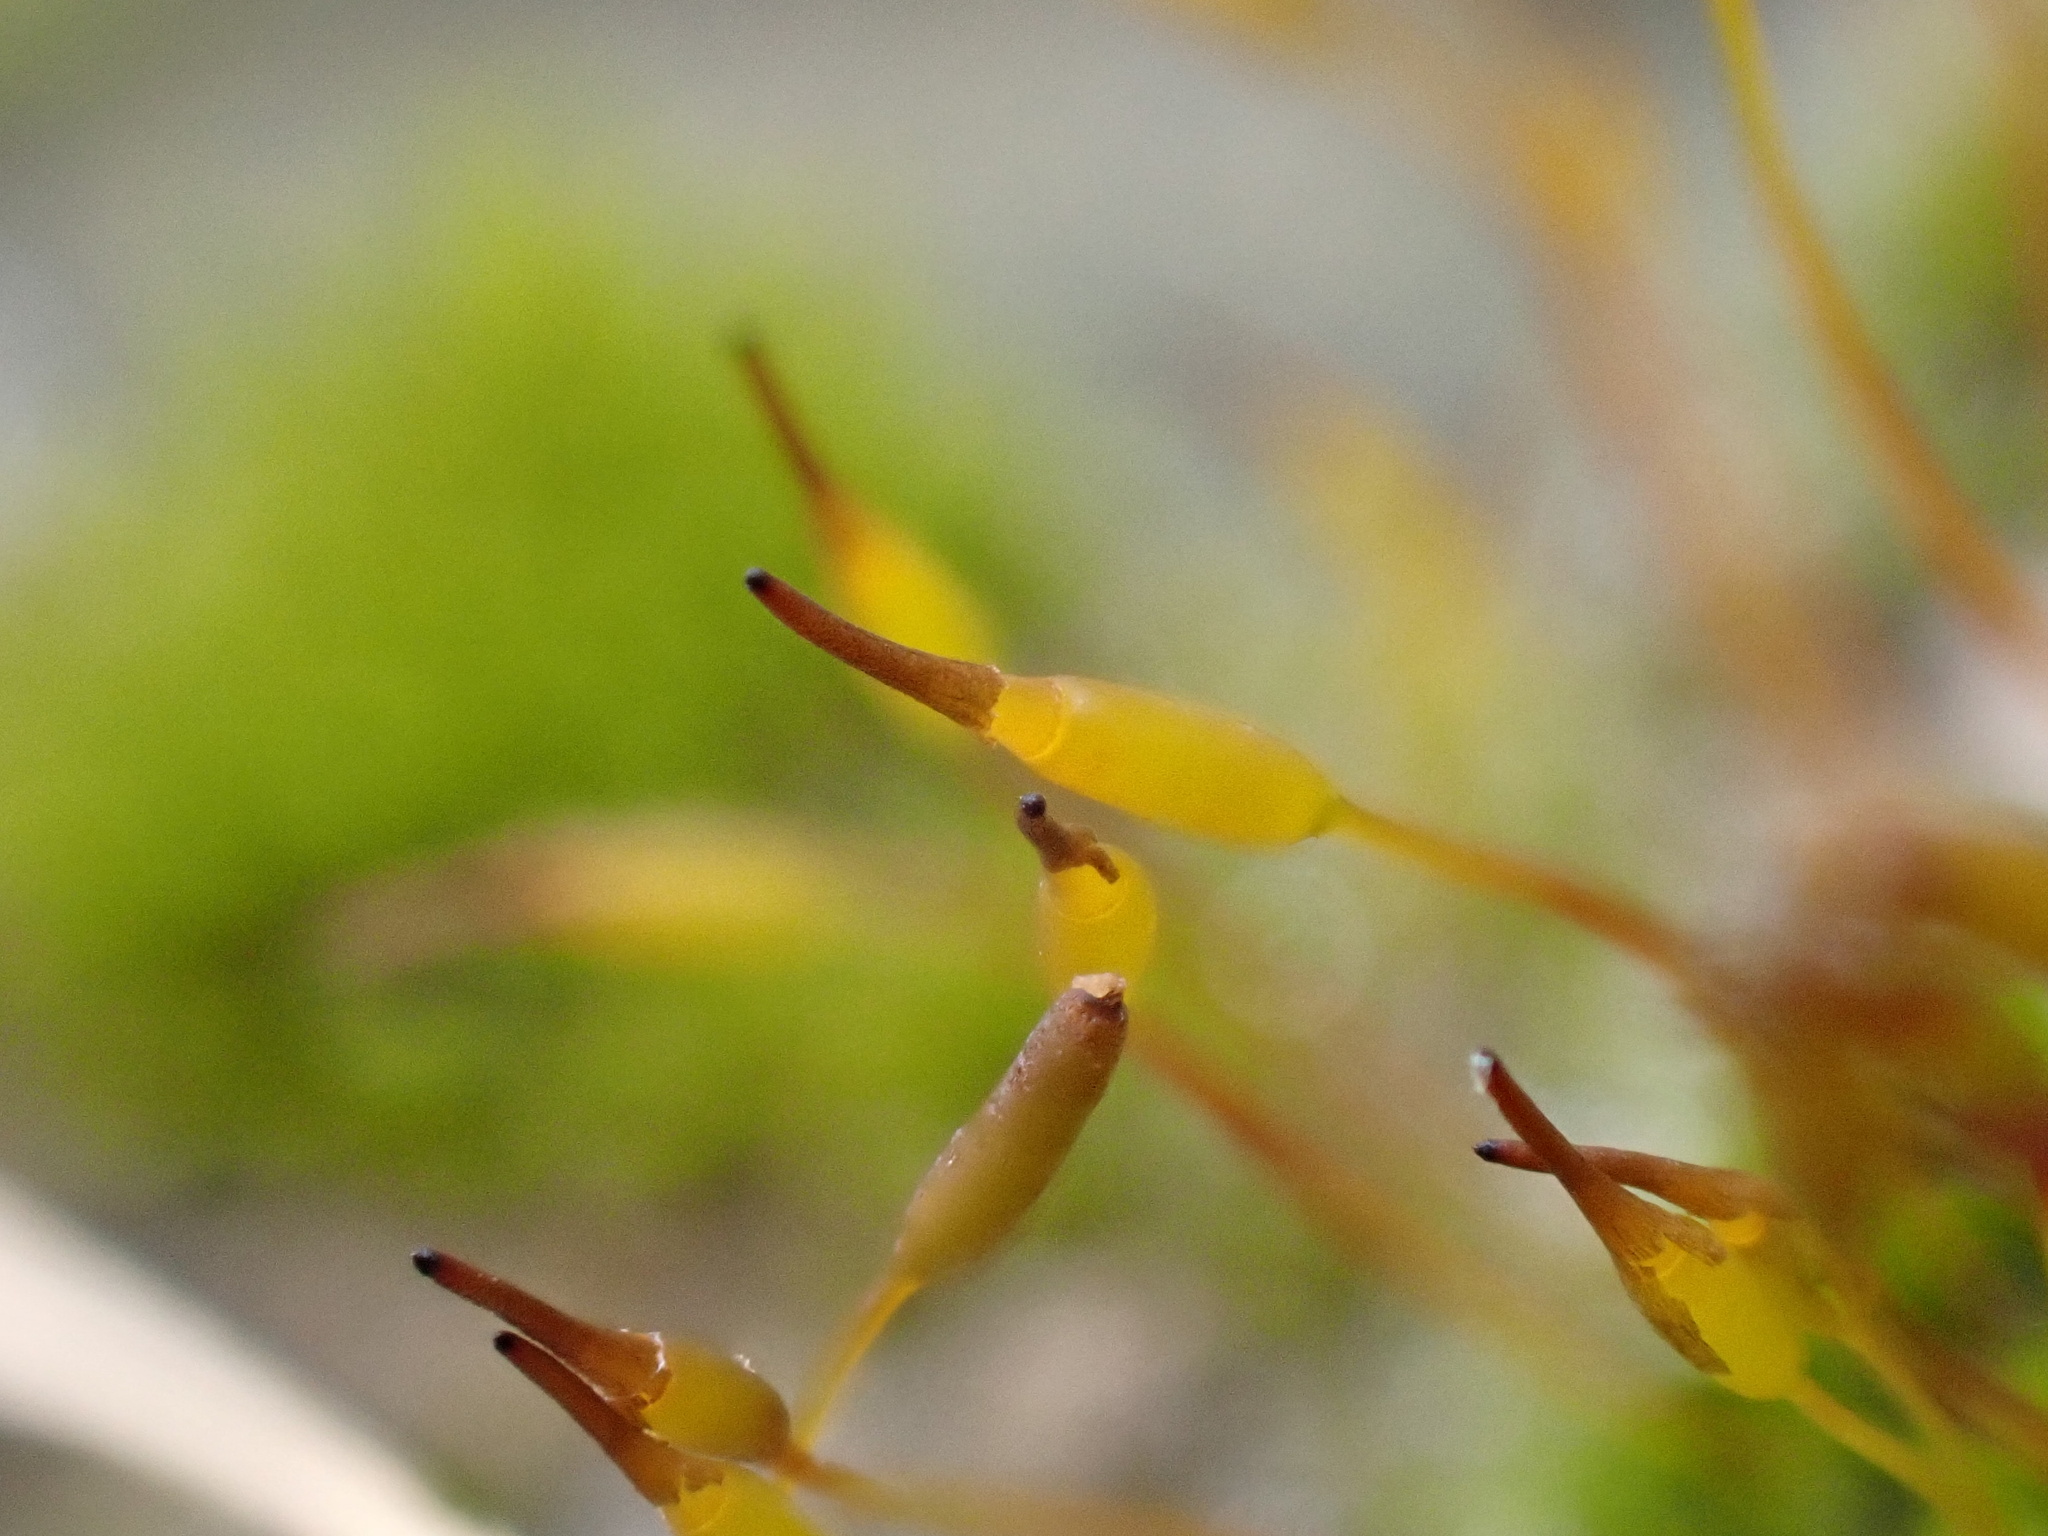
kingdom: Plantae
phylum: Bryophyta
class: Bryopsida
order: Pottiales
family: Pottiaceae
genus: Tortula
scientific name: Tortula muralis
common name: Wall screw-moss
